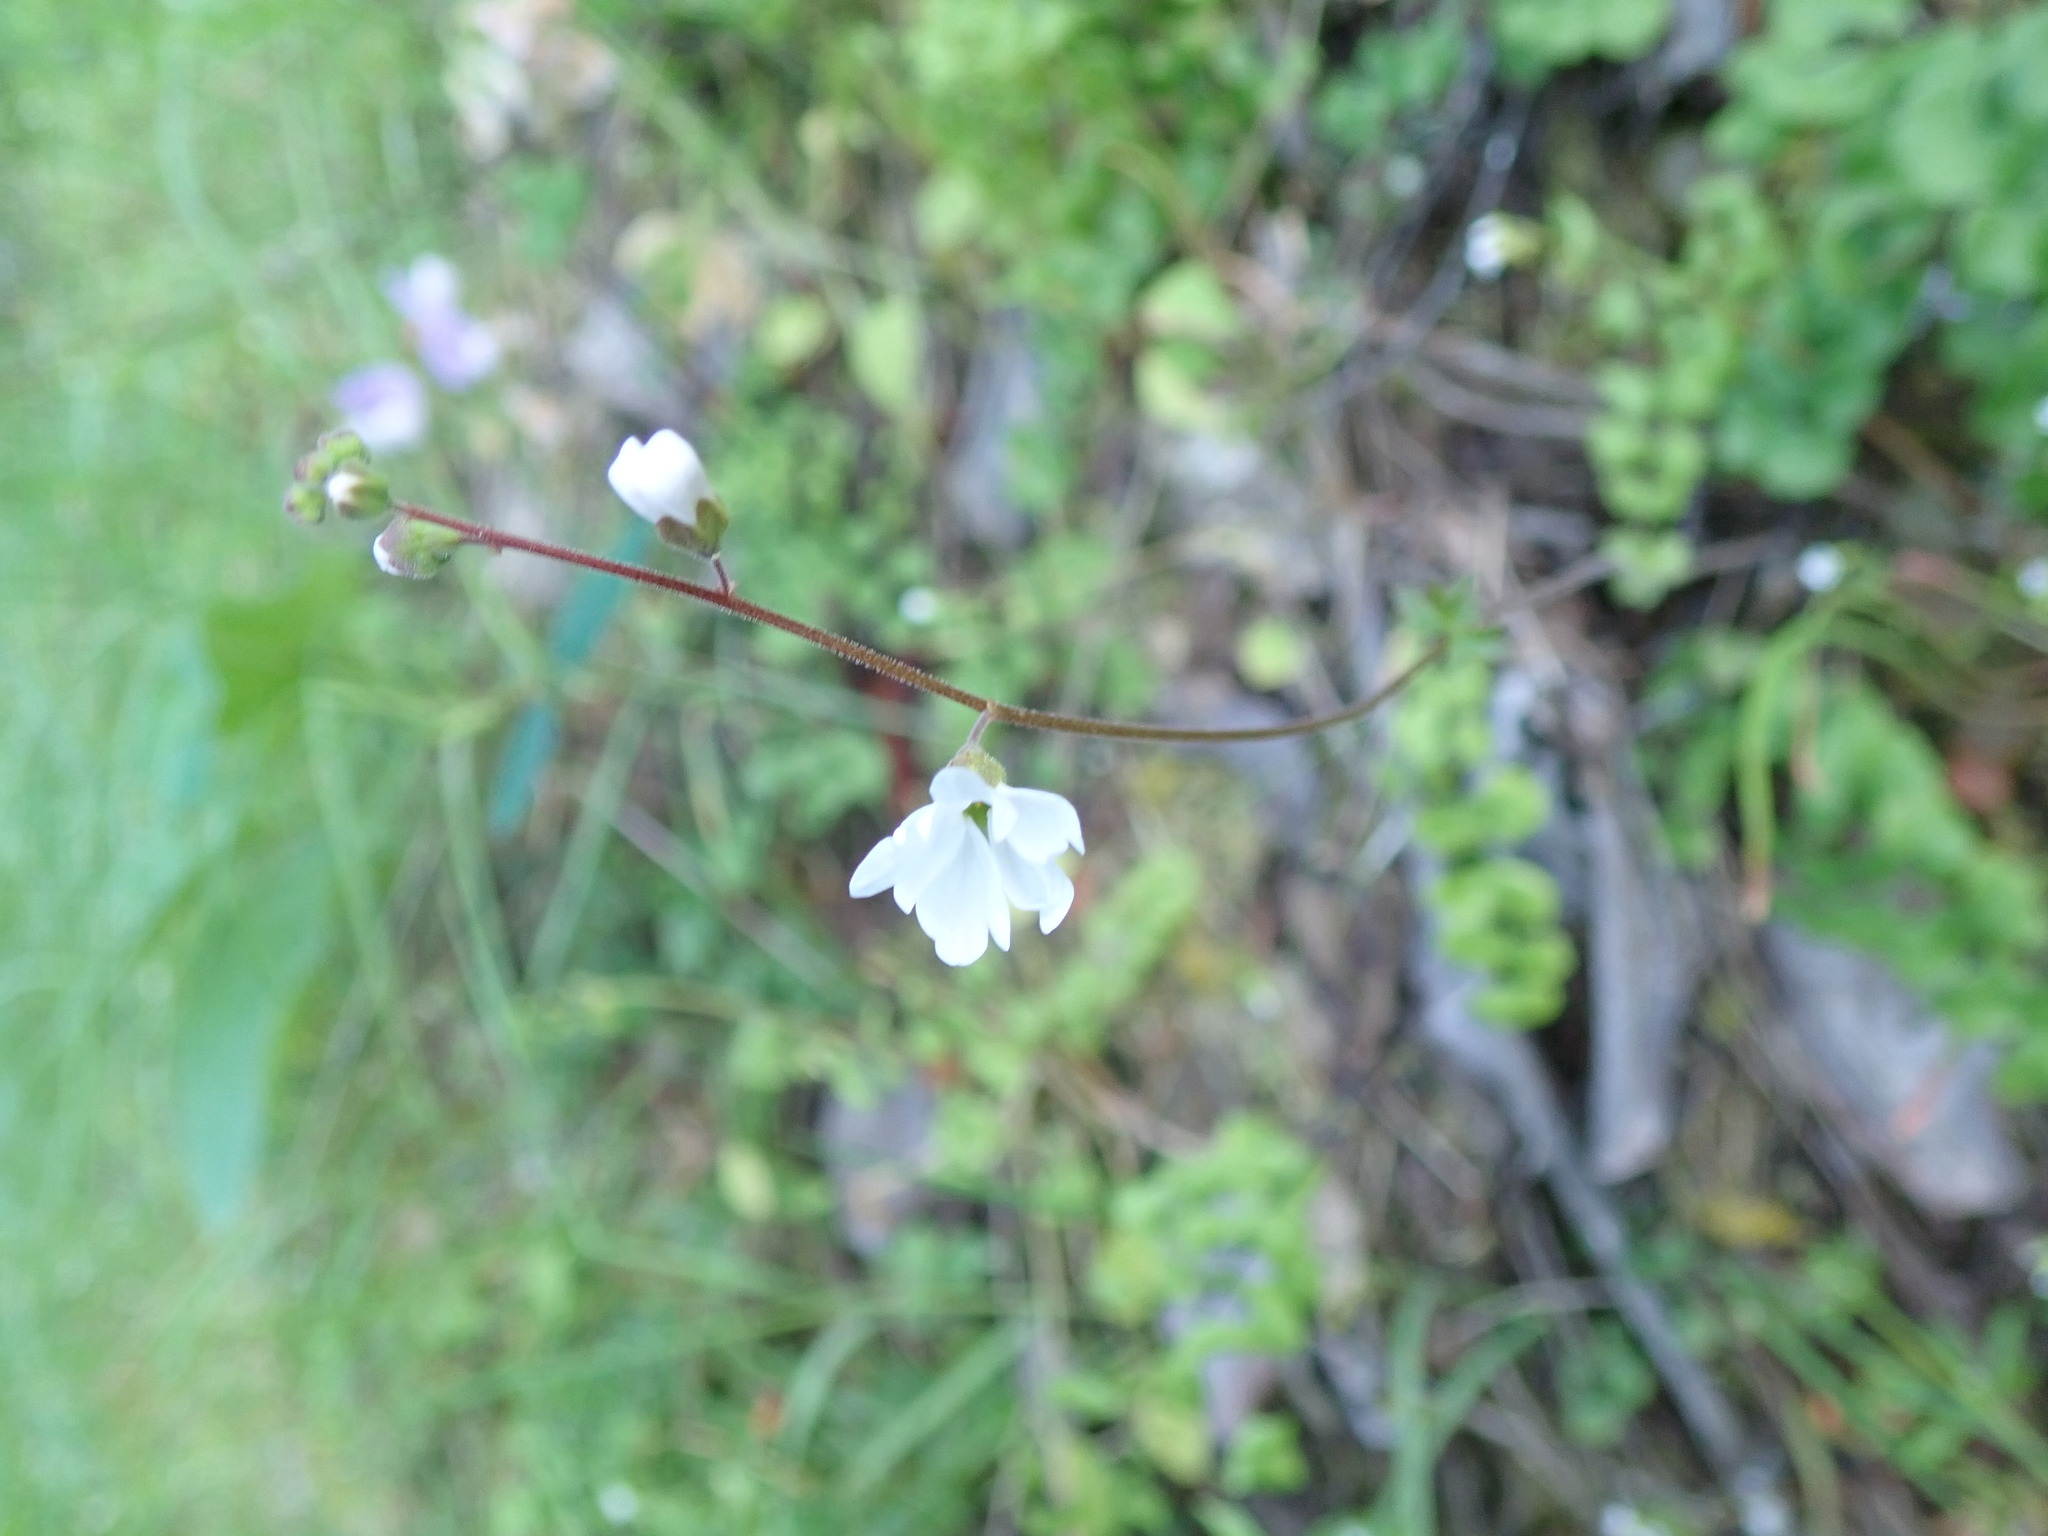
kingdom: Plantae
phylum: Tracheophyta
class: Magnoliopsida
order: Saxifragales
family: Saxifragaceae
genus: Lithophragma
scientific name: Lithophragma affine
